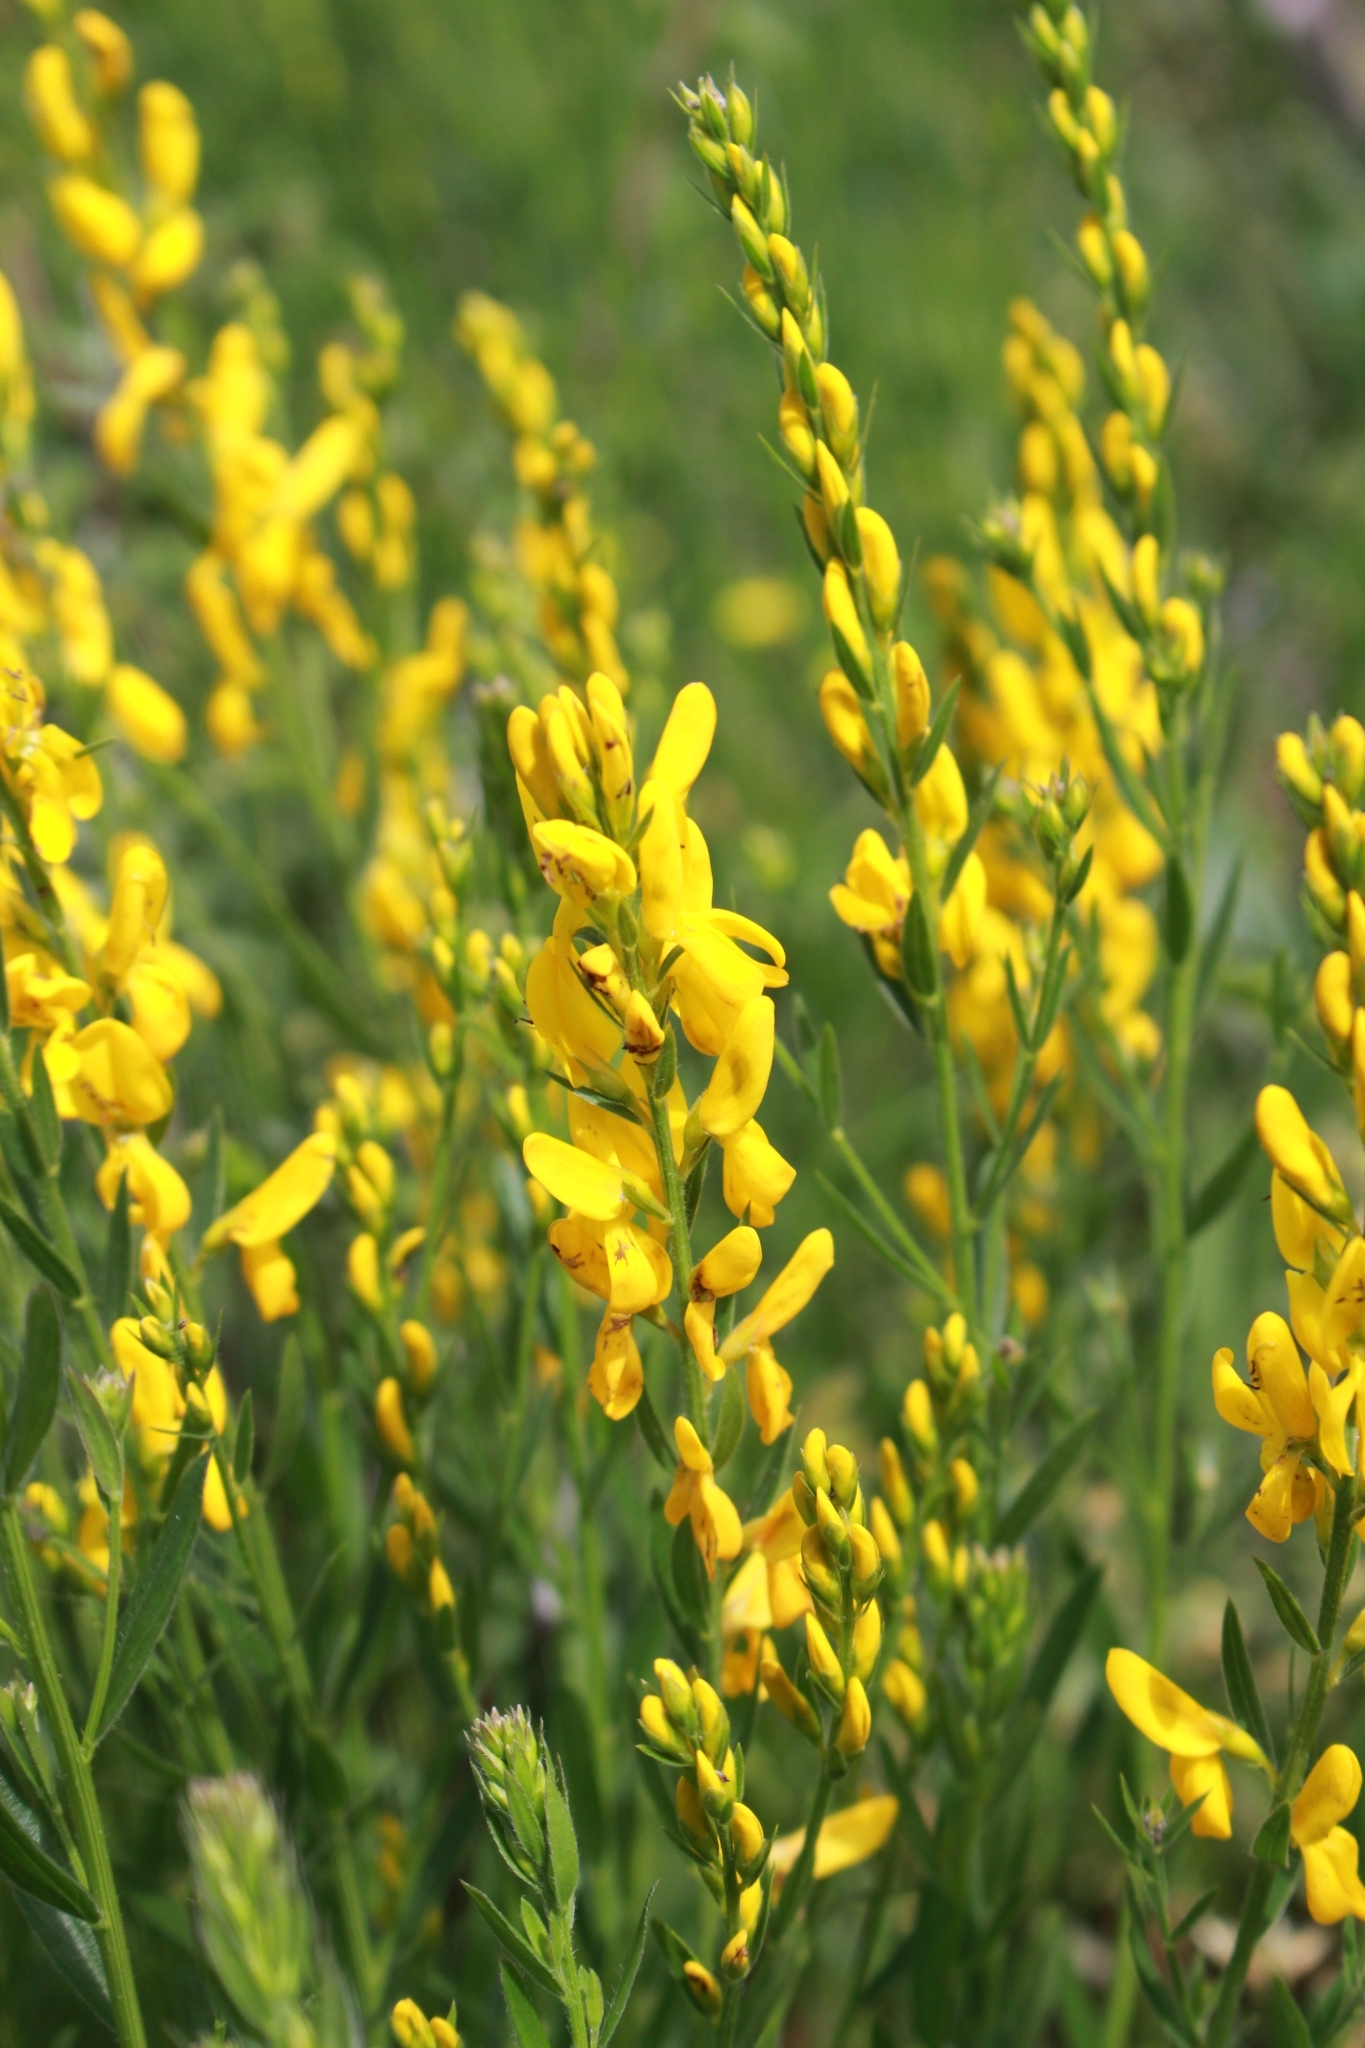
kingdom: Plantae
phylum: Tracheophyta
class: Magnoliopsida
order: Fabales
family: Fabaceae
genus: Genista
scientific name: Genista tinctoria
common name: Dyer's greenweed
